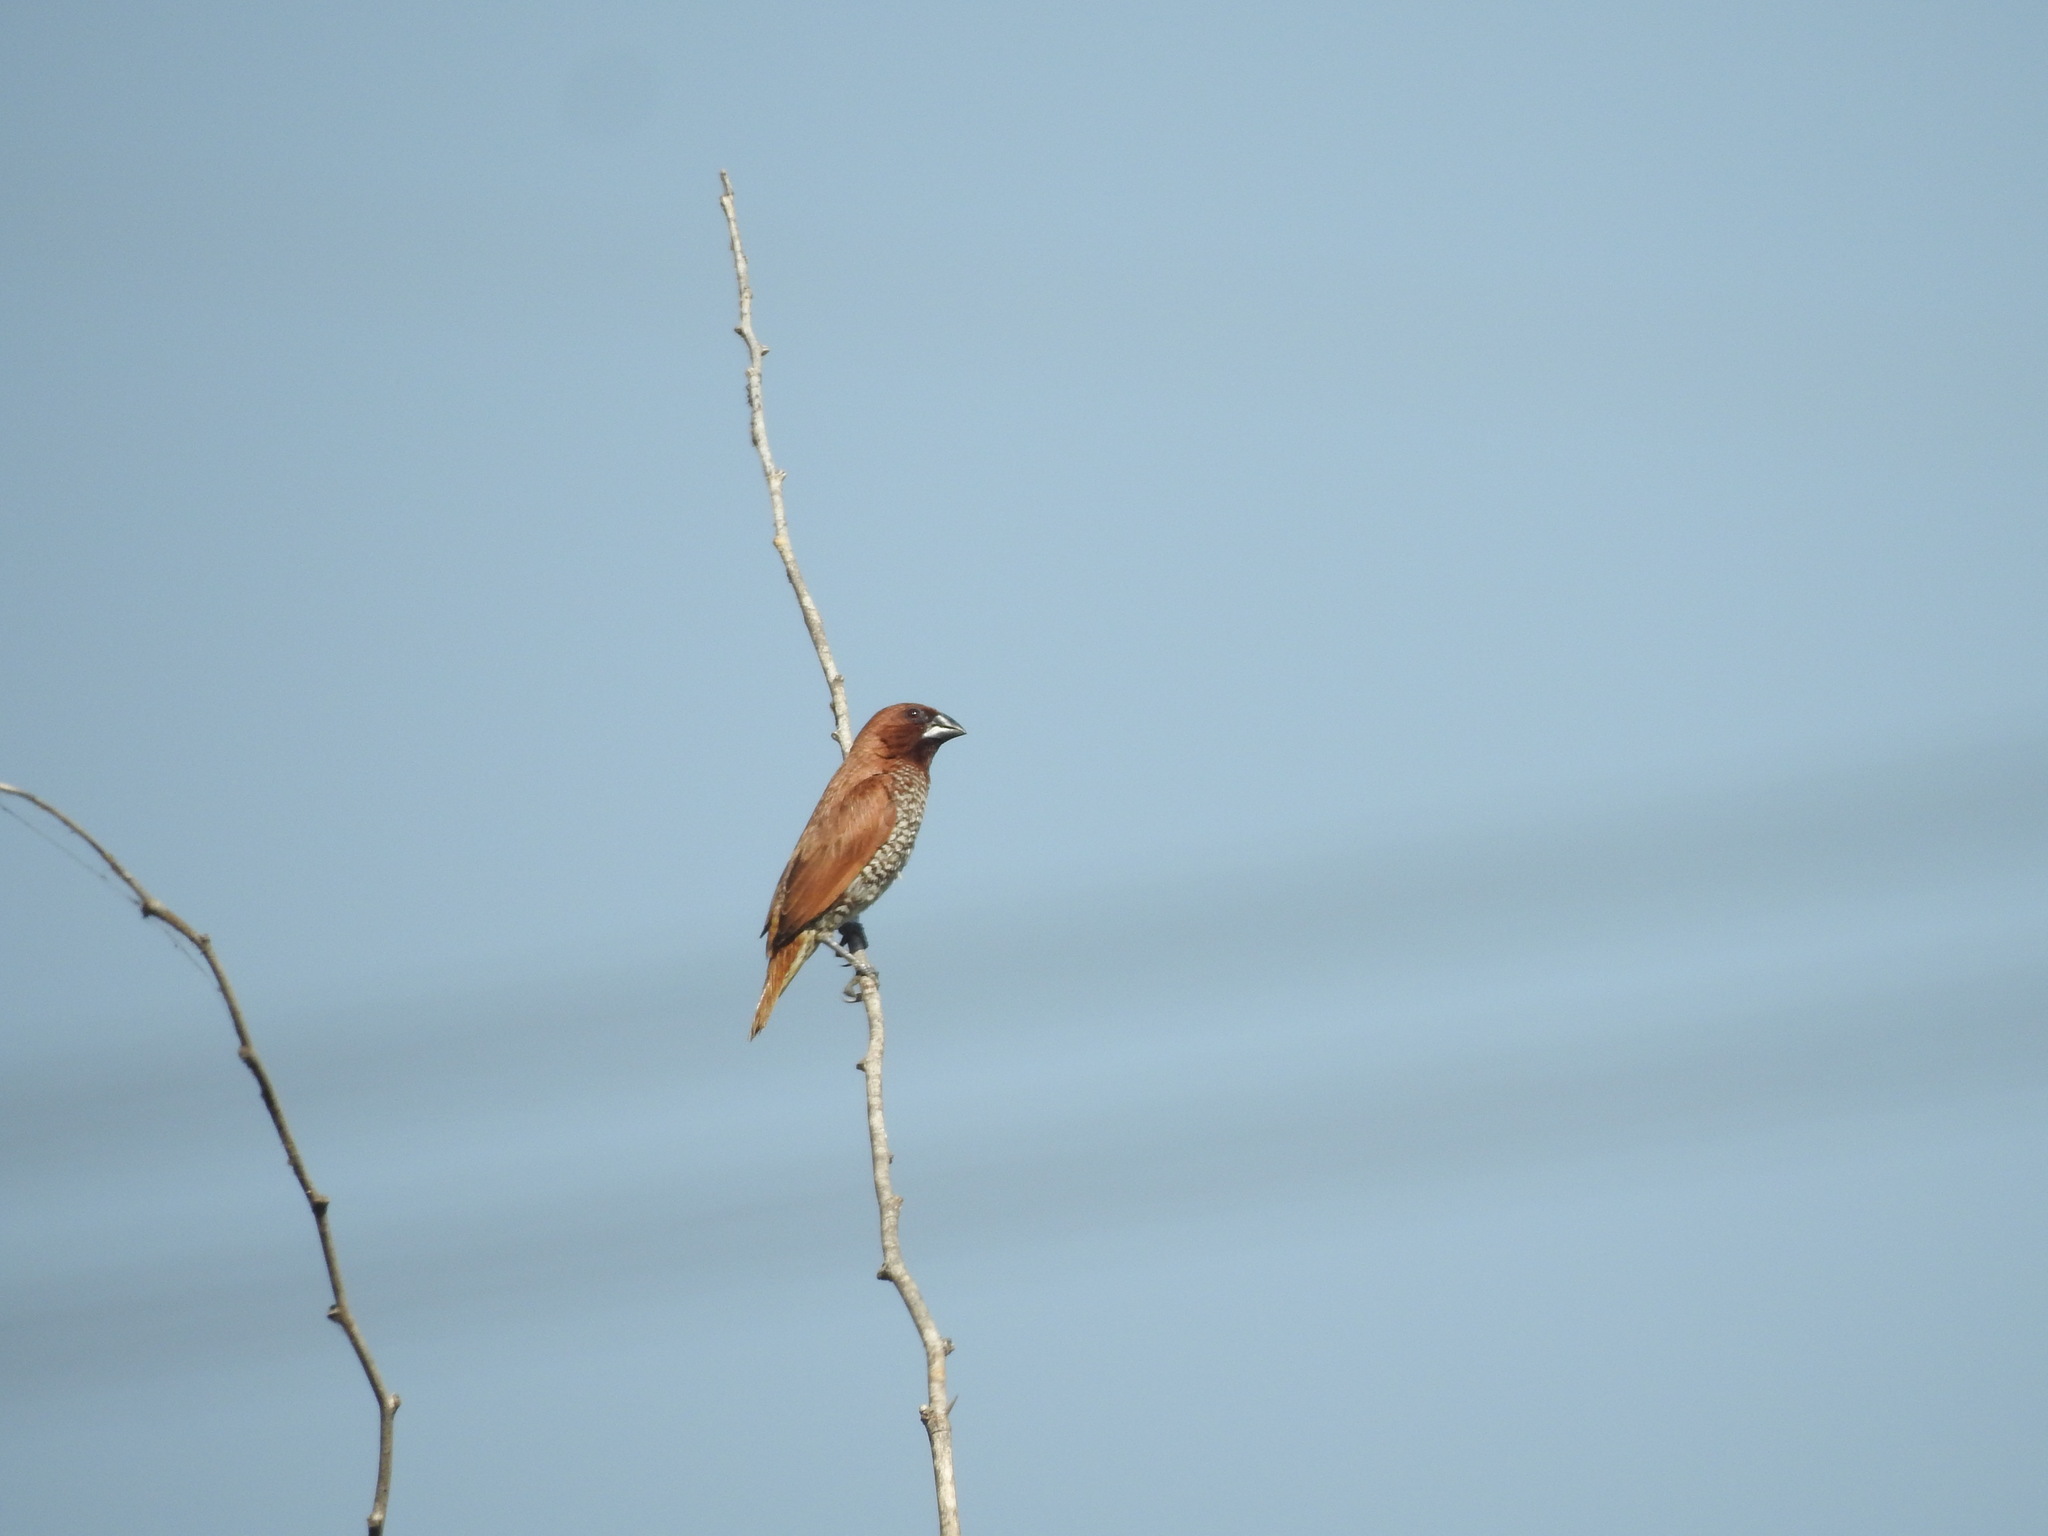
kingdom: Animalia
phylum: Chordata
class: Aves
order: Passeriformes
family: Estrildidae
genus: Lonchura
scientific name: Lonchura punctulata
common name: Scaly-breasted munia
